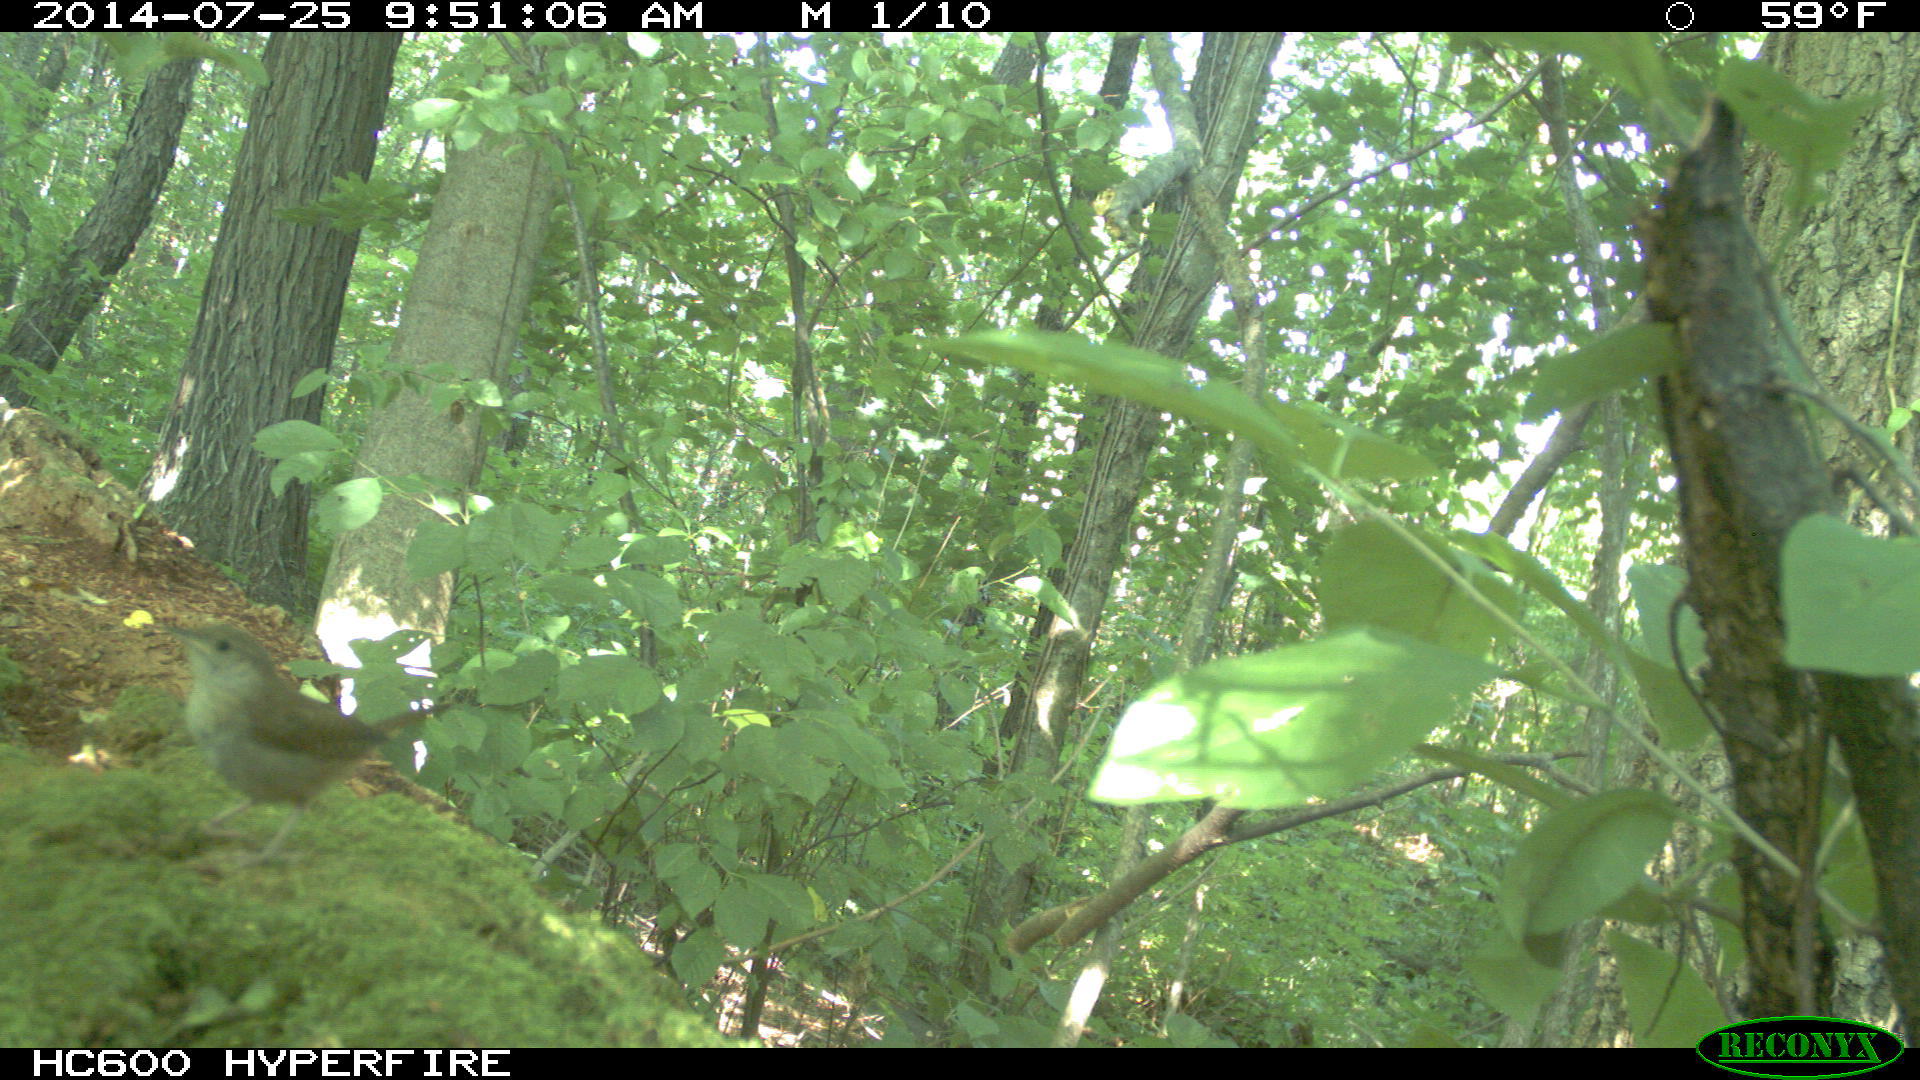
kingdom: Animalia
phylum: Chordata
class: Aves
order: Passeriformes
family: Troglodytidae
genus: Troglodytes
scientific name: Troglodytes aedon
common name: House wren
